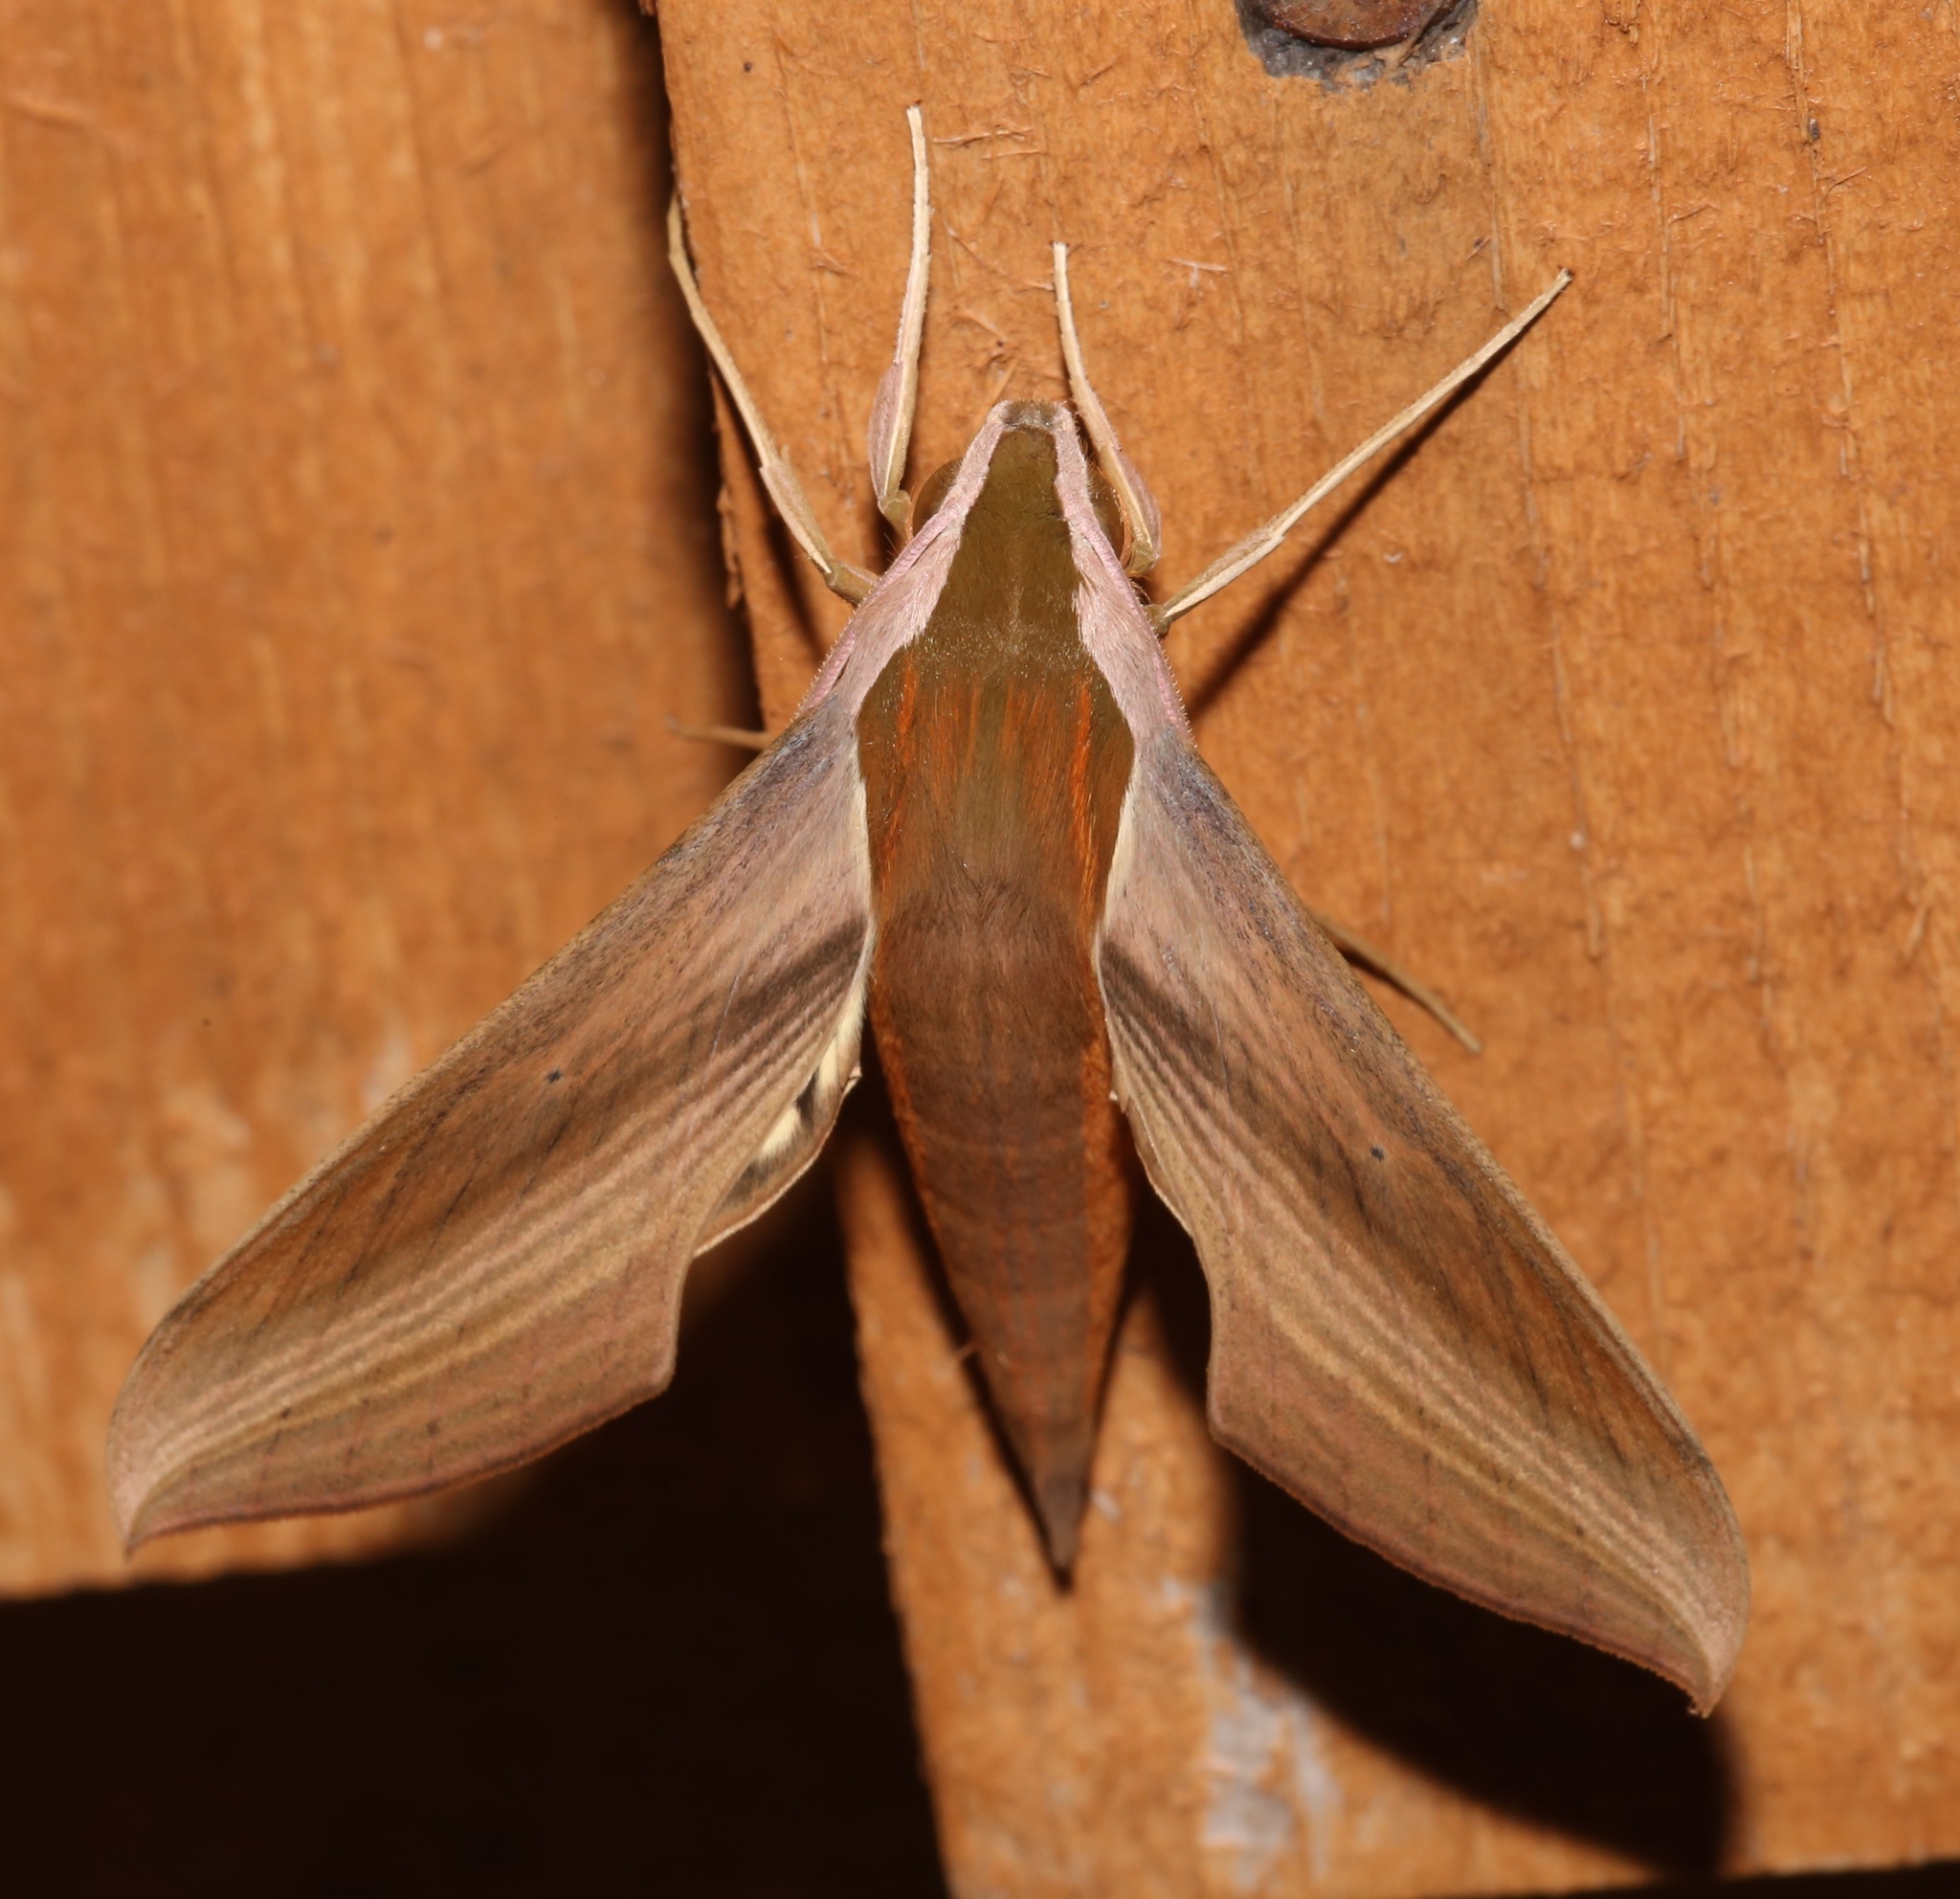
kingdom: Animalia
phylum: Arthropoda
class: Insecta
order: Lepidoptera
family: Sphingidae
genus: Xylophanes
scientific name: Xylophanes tersa
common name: Tersa sphinx
